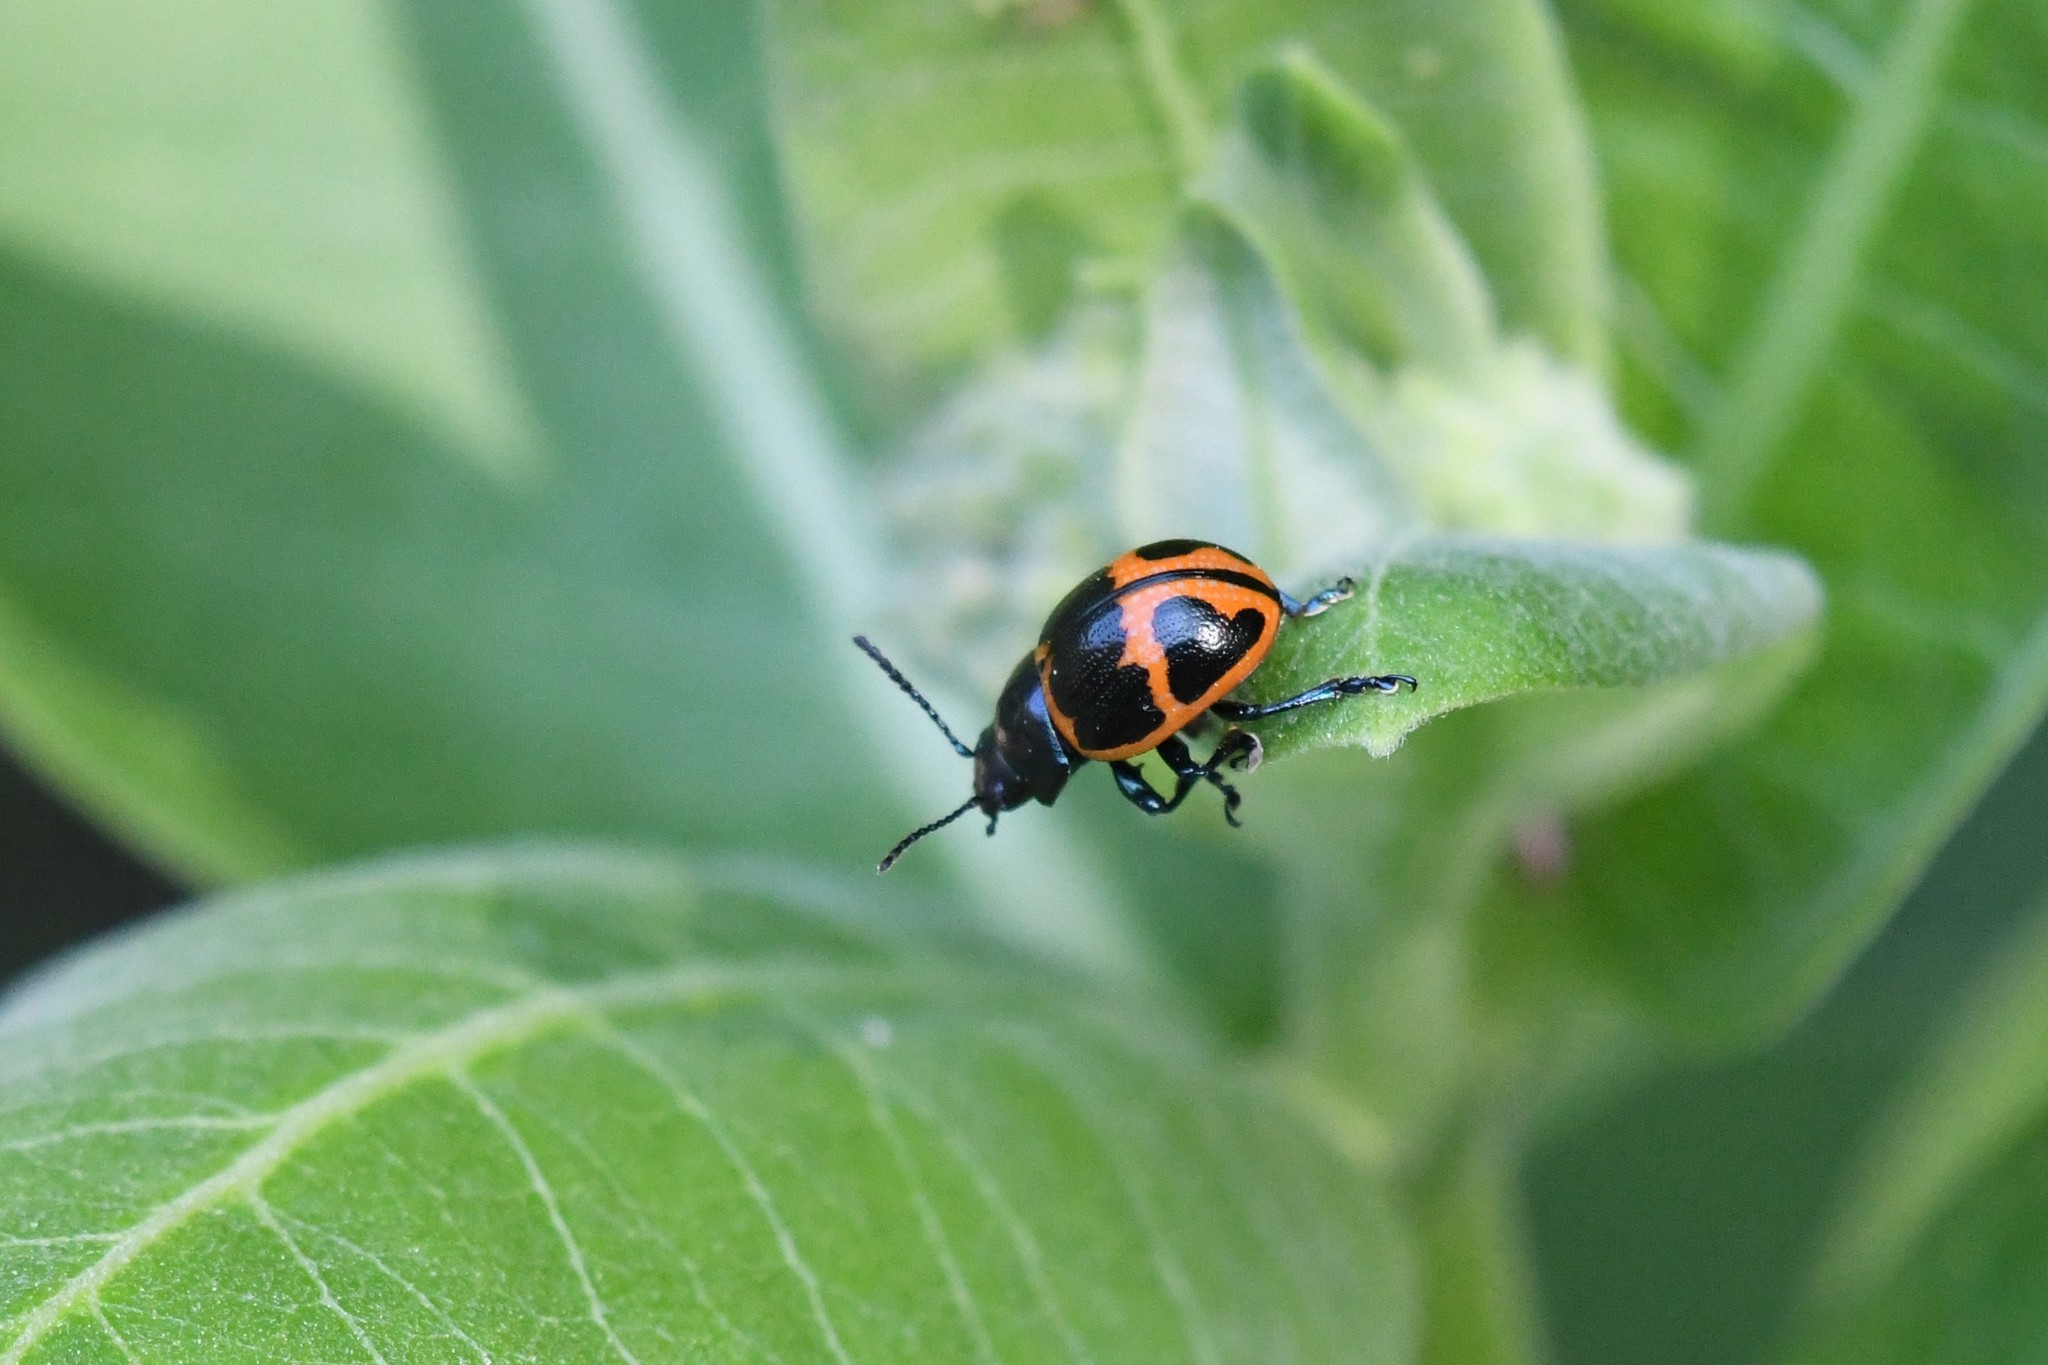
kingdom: Animalia
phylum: Arthropoda
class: Insecta
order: Coleoptera
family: Chrysomelidae
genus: Labidomera
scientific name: Labidomera clivicollis
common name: Swamp milkweed leaf beetle
